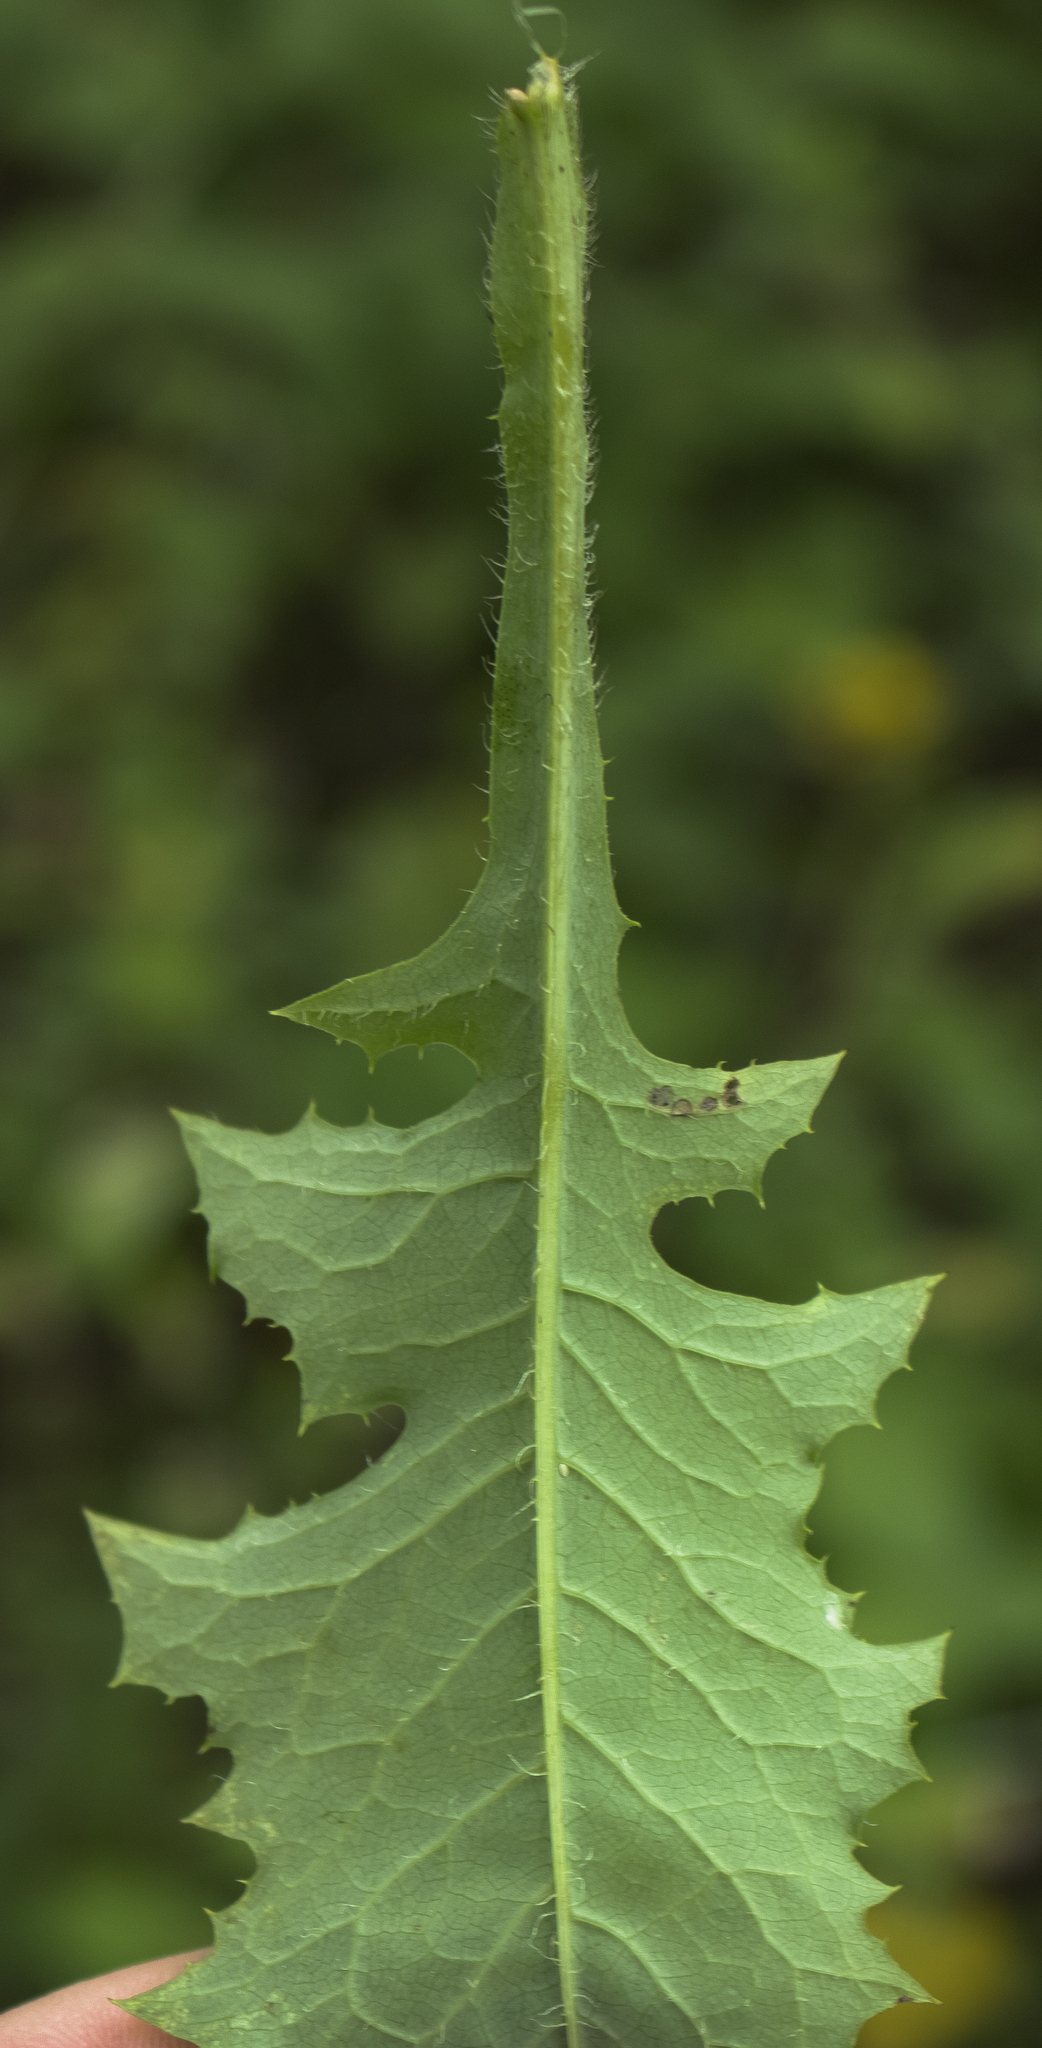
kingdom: Plantae
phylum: Tracheophyta
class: Magnoliopsida
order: Asterales
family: Asteraceae
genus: Lactuca
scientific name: Lactuca biennis
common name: Blue wood lettuce
